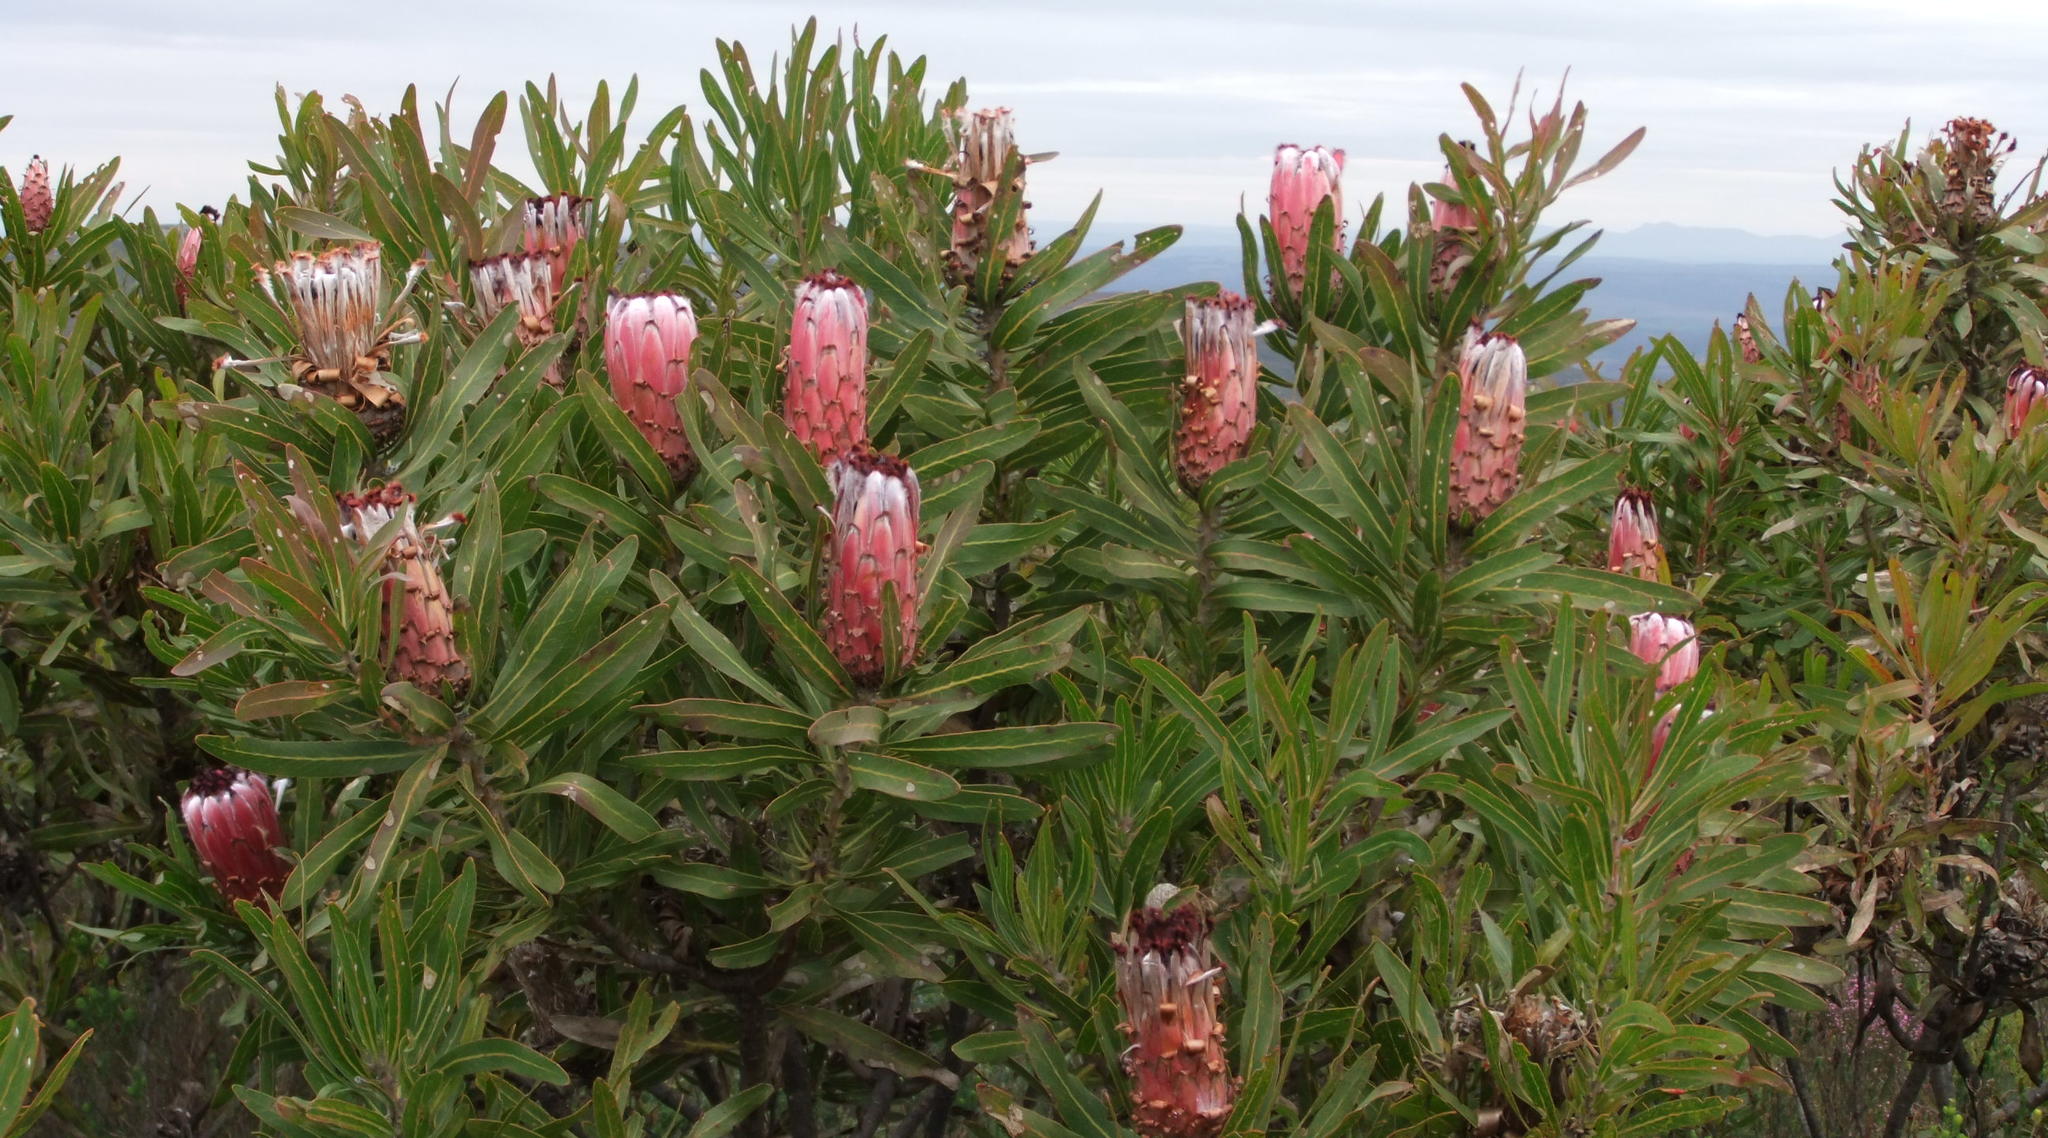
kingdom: Plantae
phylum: Tracheophyta
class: Magnoliopsida
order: Proteales
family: Proteaceae
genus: Protea
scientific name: Protea neriifolia
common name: Blue sugarbush
